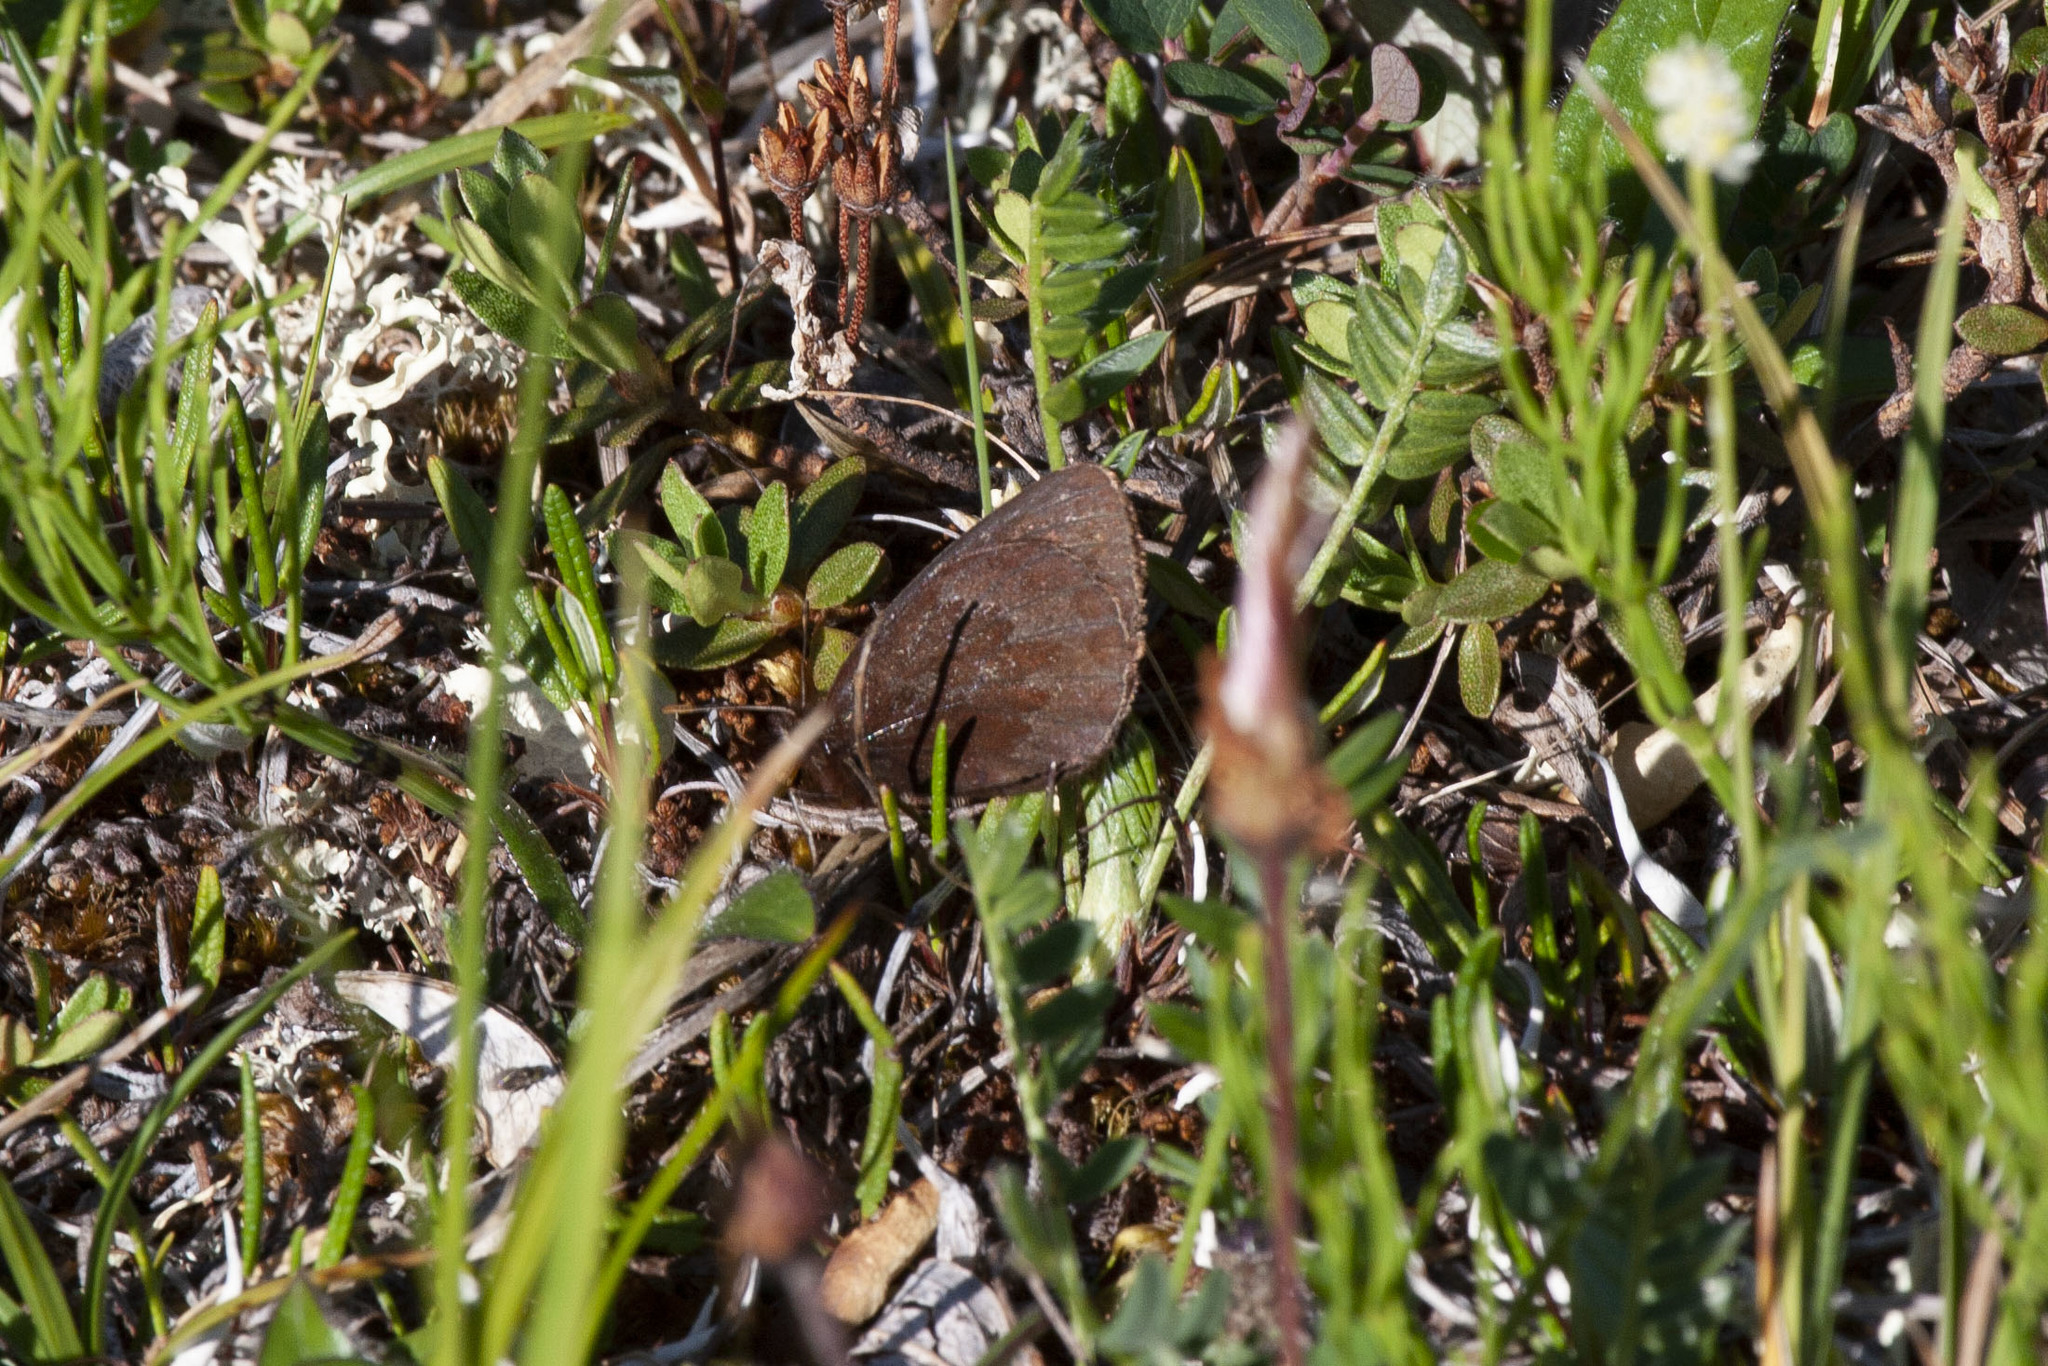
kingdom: Animalia
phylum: Arthropoda
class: Insecta
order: Lepidoptera
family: Nymphalidae
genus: Erebia
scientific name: Erebia lafontainei
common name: Reddish alpine
